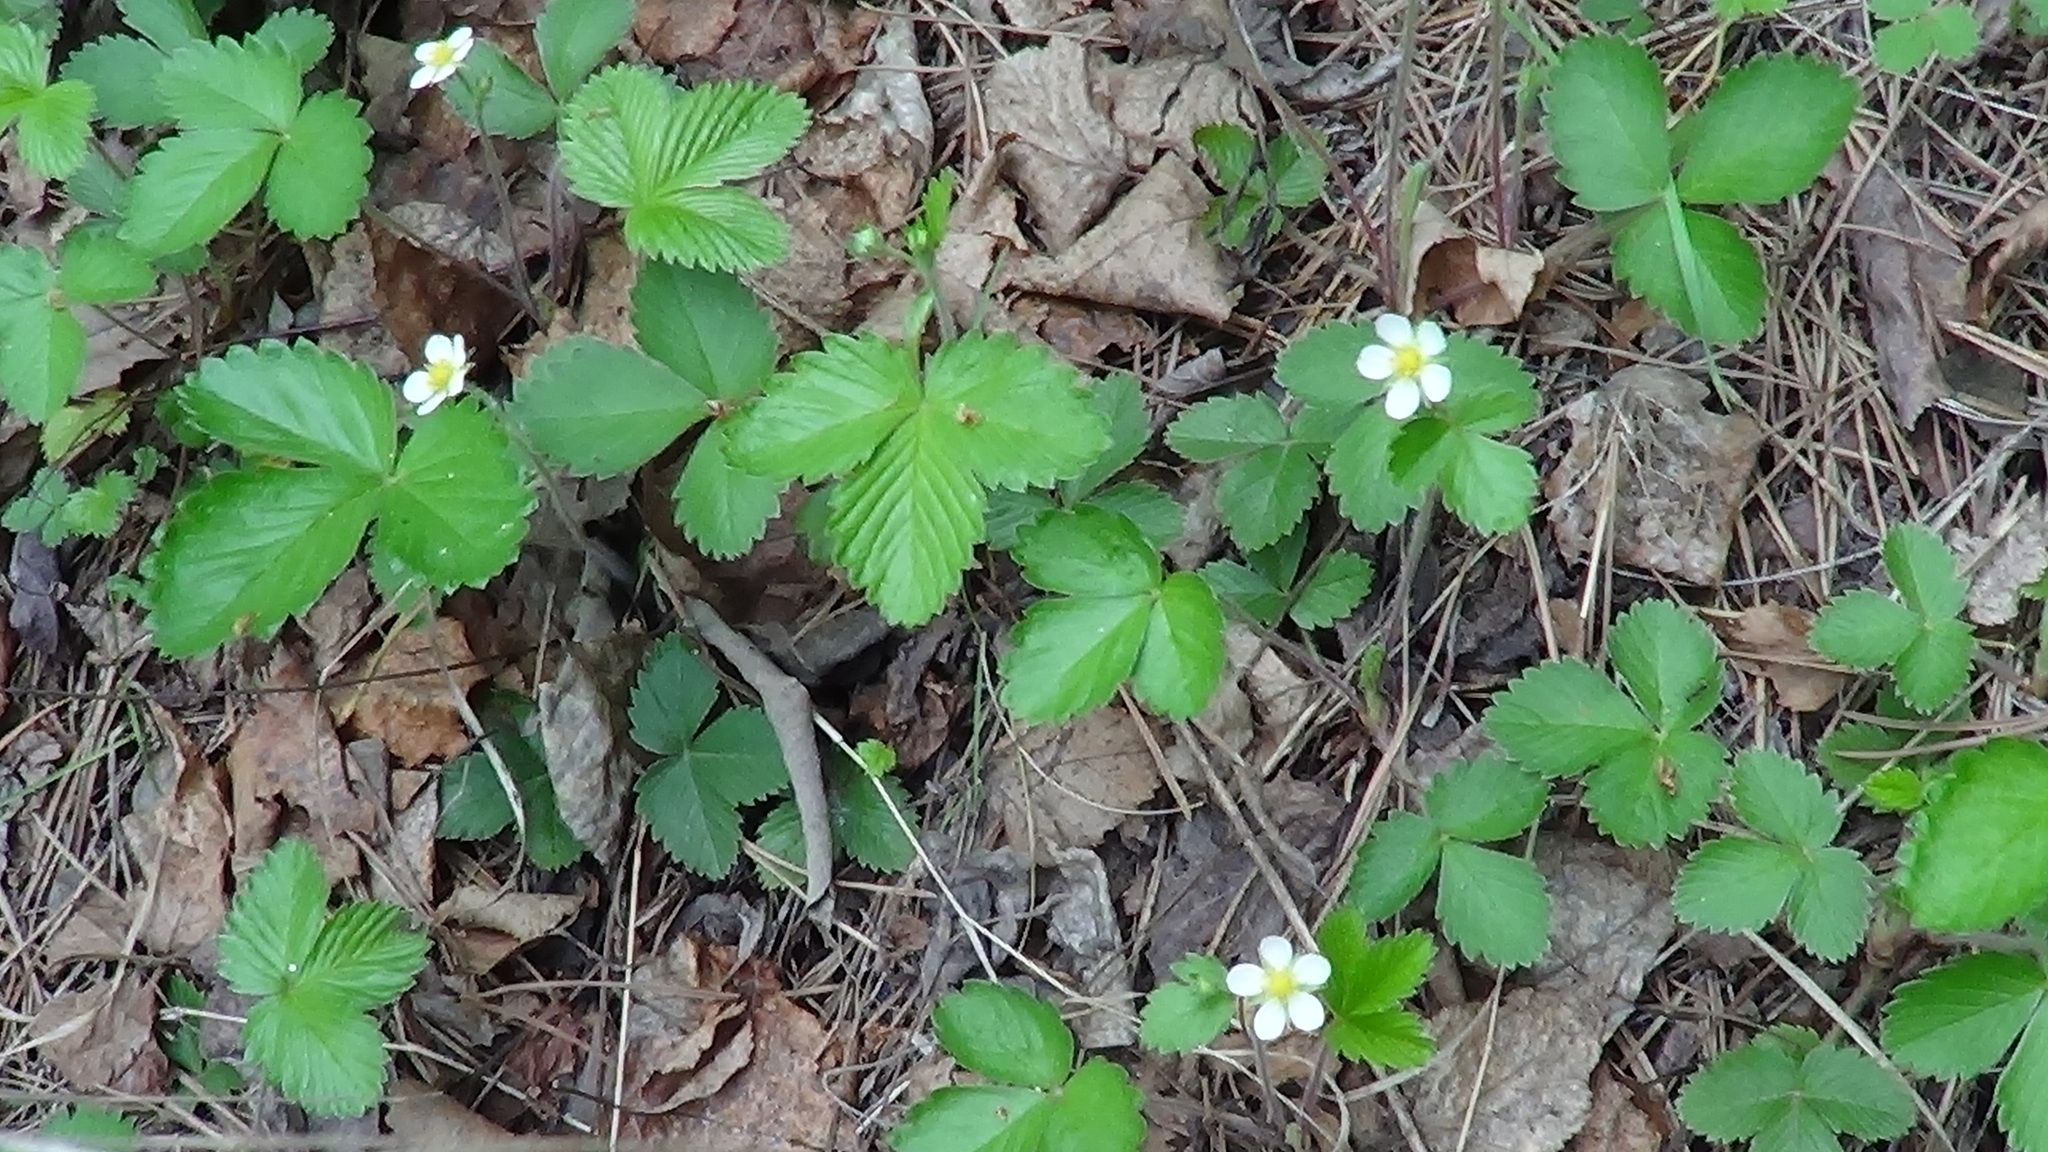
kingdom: Plantae
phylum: Tracheophyta
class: Magnoliopsida
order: Rosales
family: Rosaceae
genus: Fragaria
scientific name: Fragaria vesca
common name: Wild strawberry
